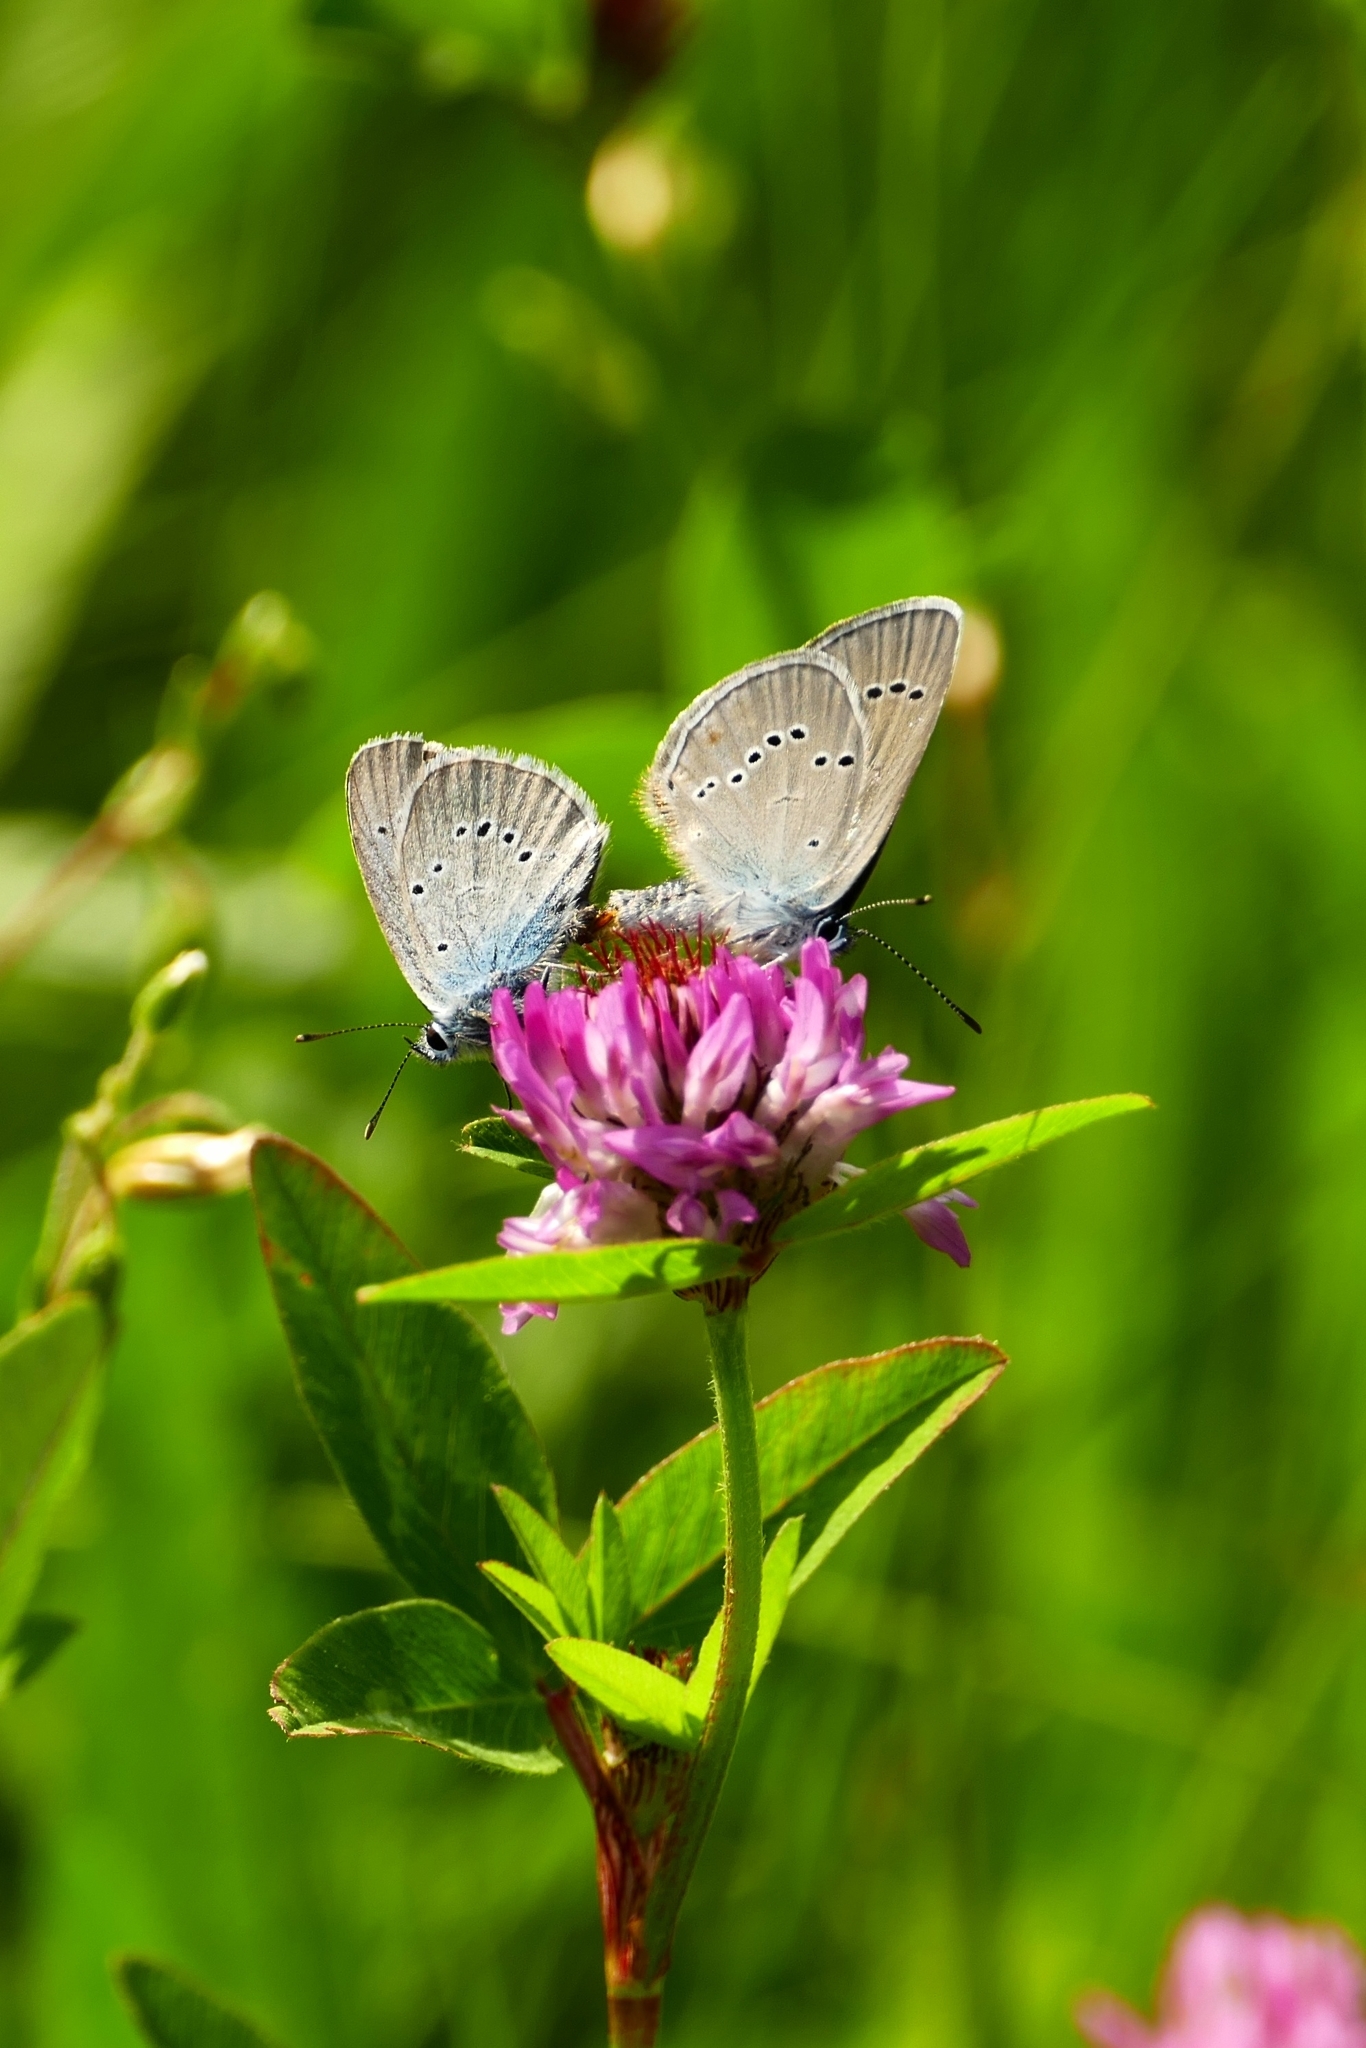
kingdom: Animalia
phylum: Arthropoda
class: Insecta
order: Lepidoptera
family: Lycaenidae
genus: Cyaniris
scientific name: Cyaniris semiargus
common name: Mazarine blue
